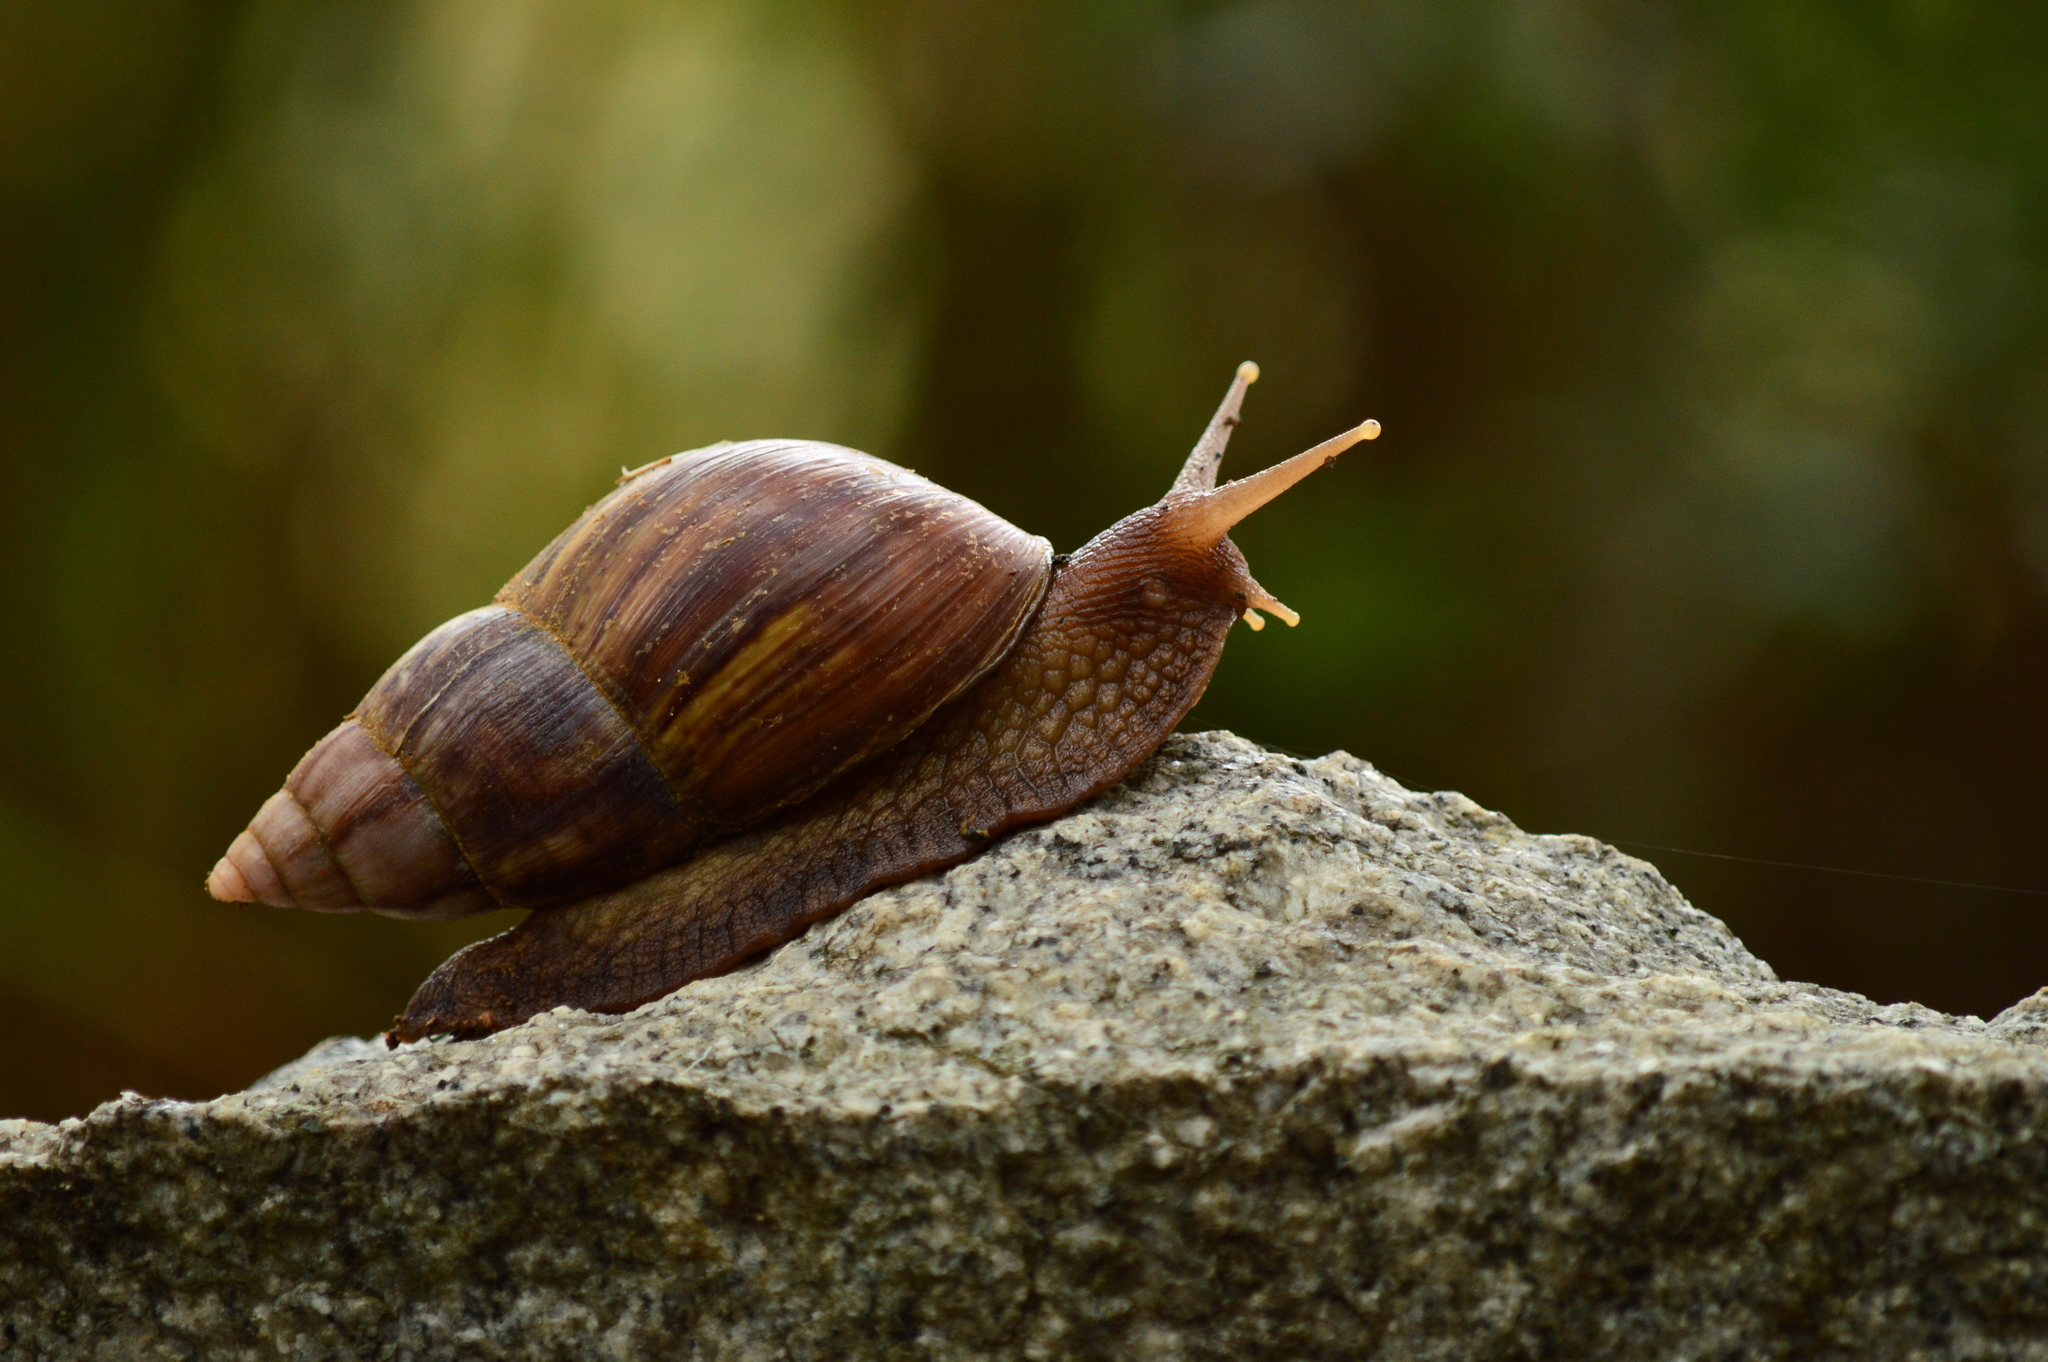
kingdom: Animalia
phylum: Mollusca
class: Gastropoda
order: Stylommatophora
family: Achatinidae
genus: Lissachatina
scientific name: Lissachatina fulica
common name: Giant african snail
